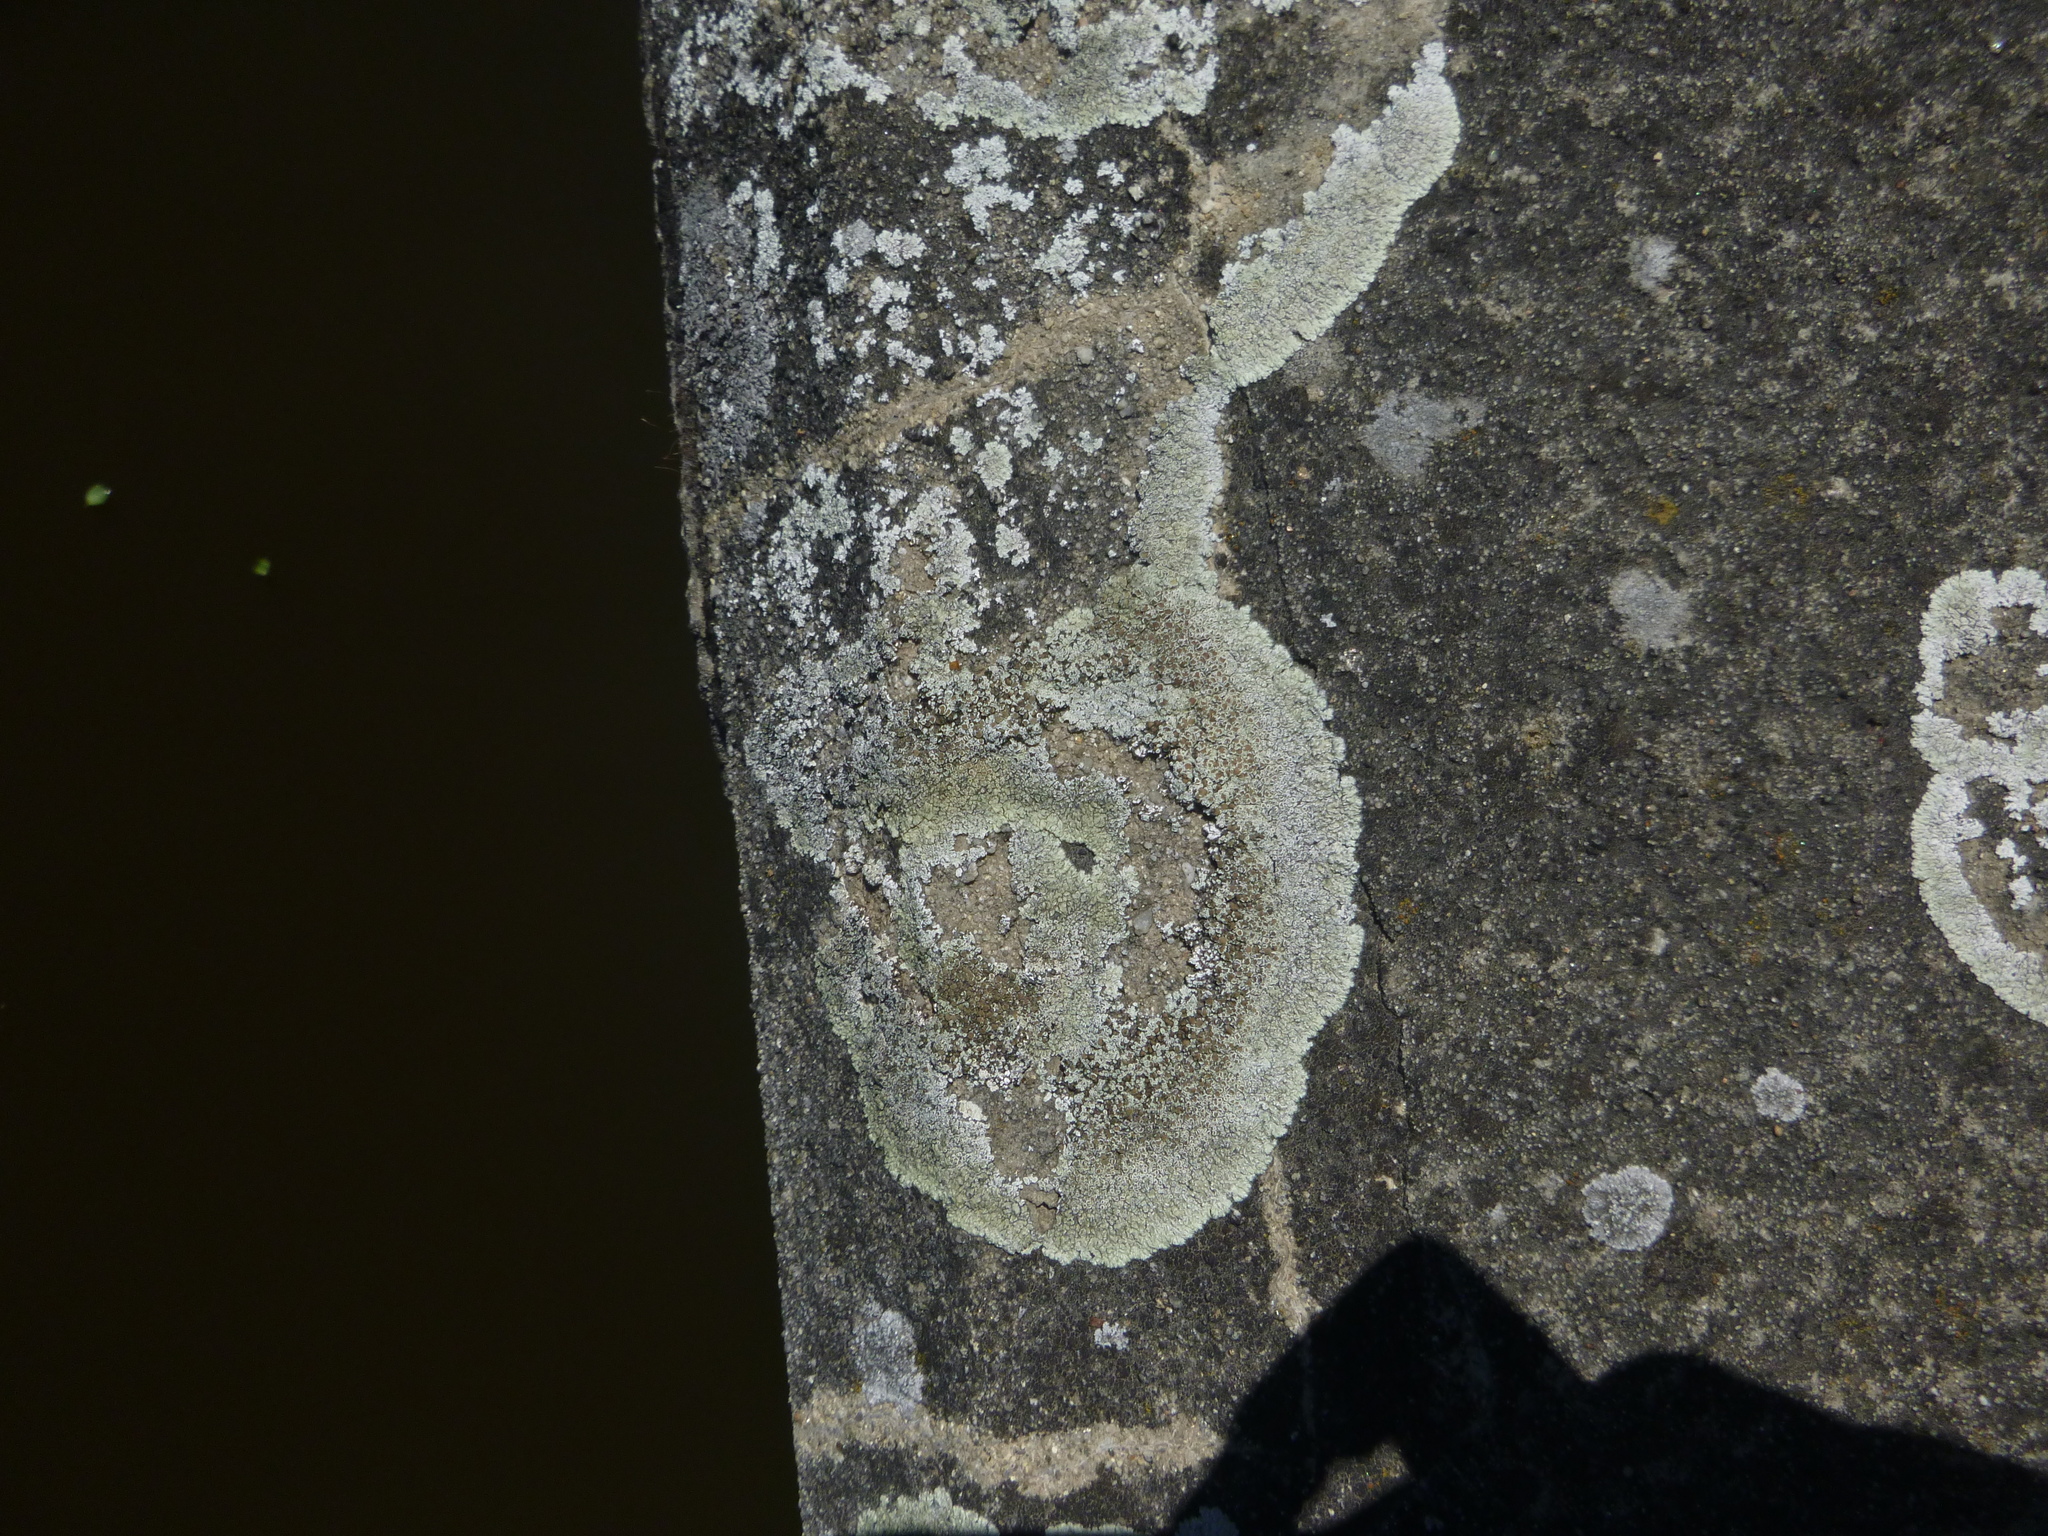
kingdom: Fungi
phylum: Ascomycota
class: Lecanoromycetes
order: Lecanorales
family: Lecanoraceae
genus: Protoparmeliopsis
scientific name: Protoparmeliopsis muralis
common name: Stonewall rim lichen
